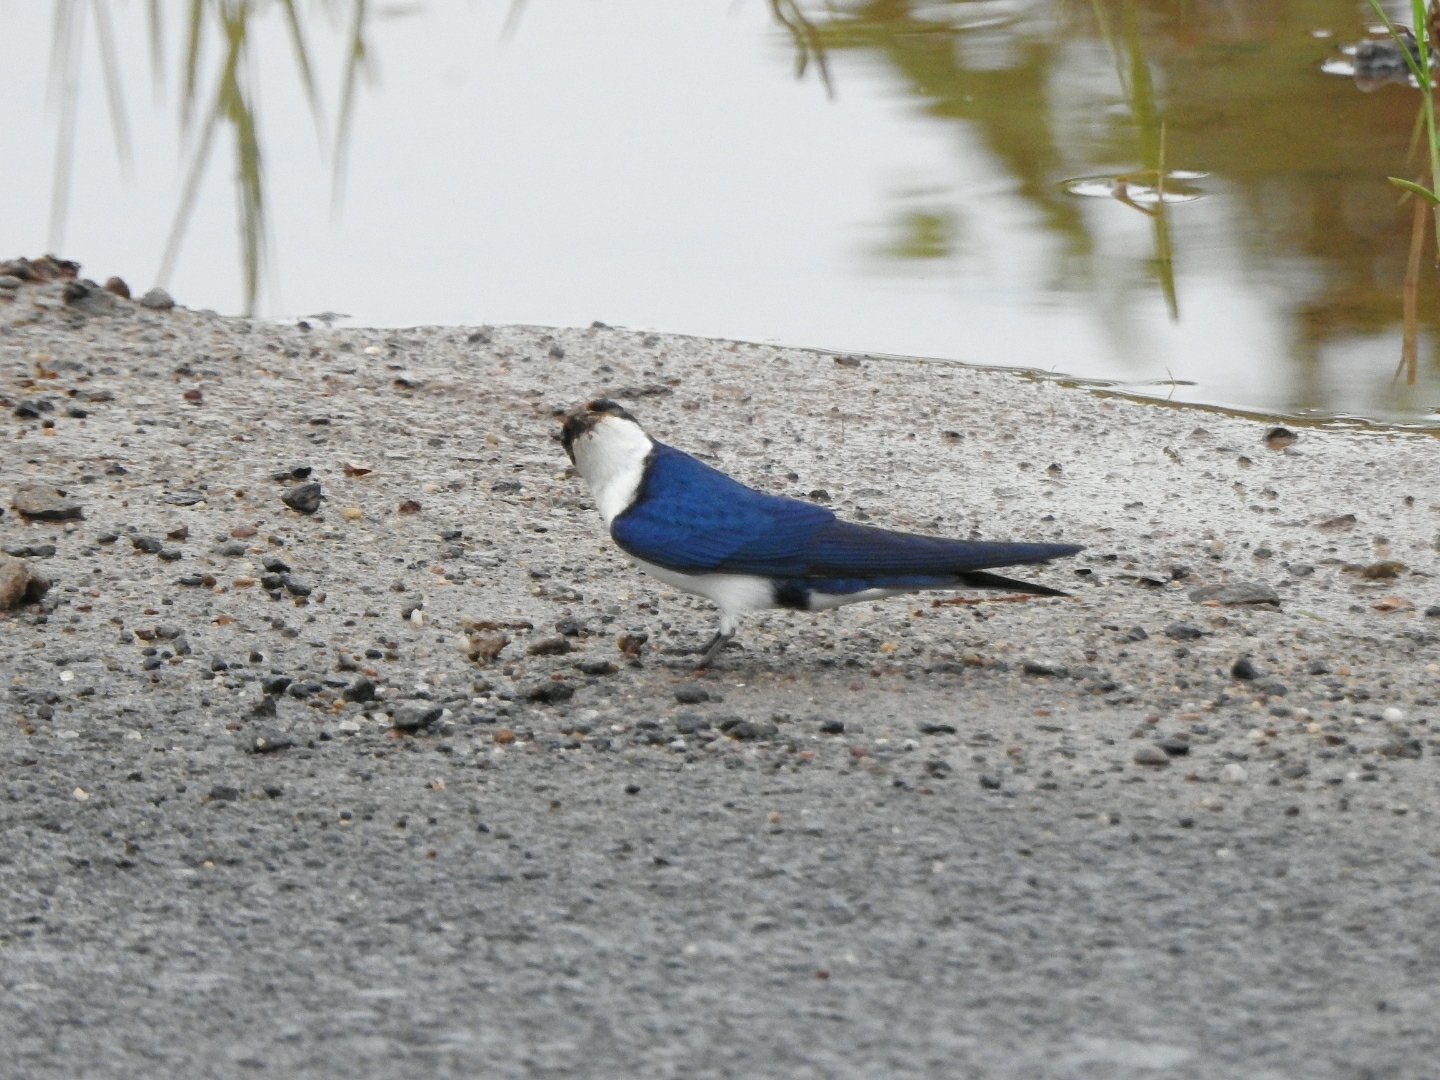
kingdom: Animalia
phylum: Chordata
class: Aves
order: Passeriformes
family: Hirundinidae
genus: Hirundo
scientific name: Hirundo smithii
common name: Wire-tailed swallow
